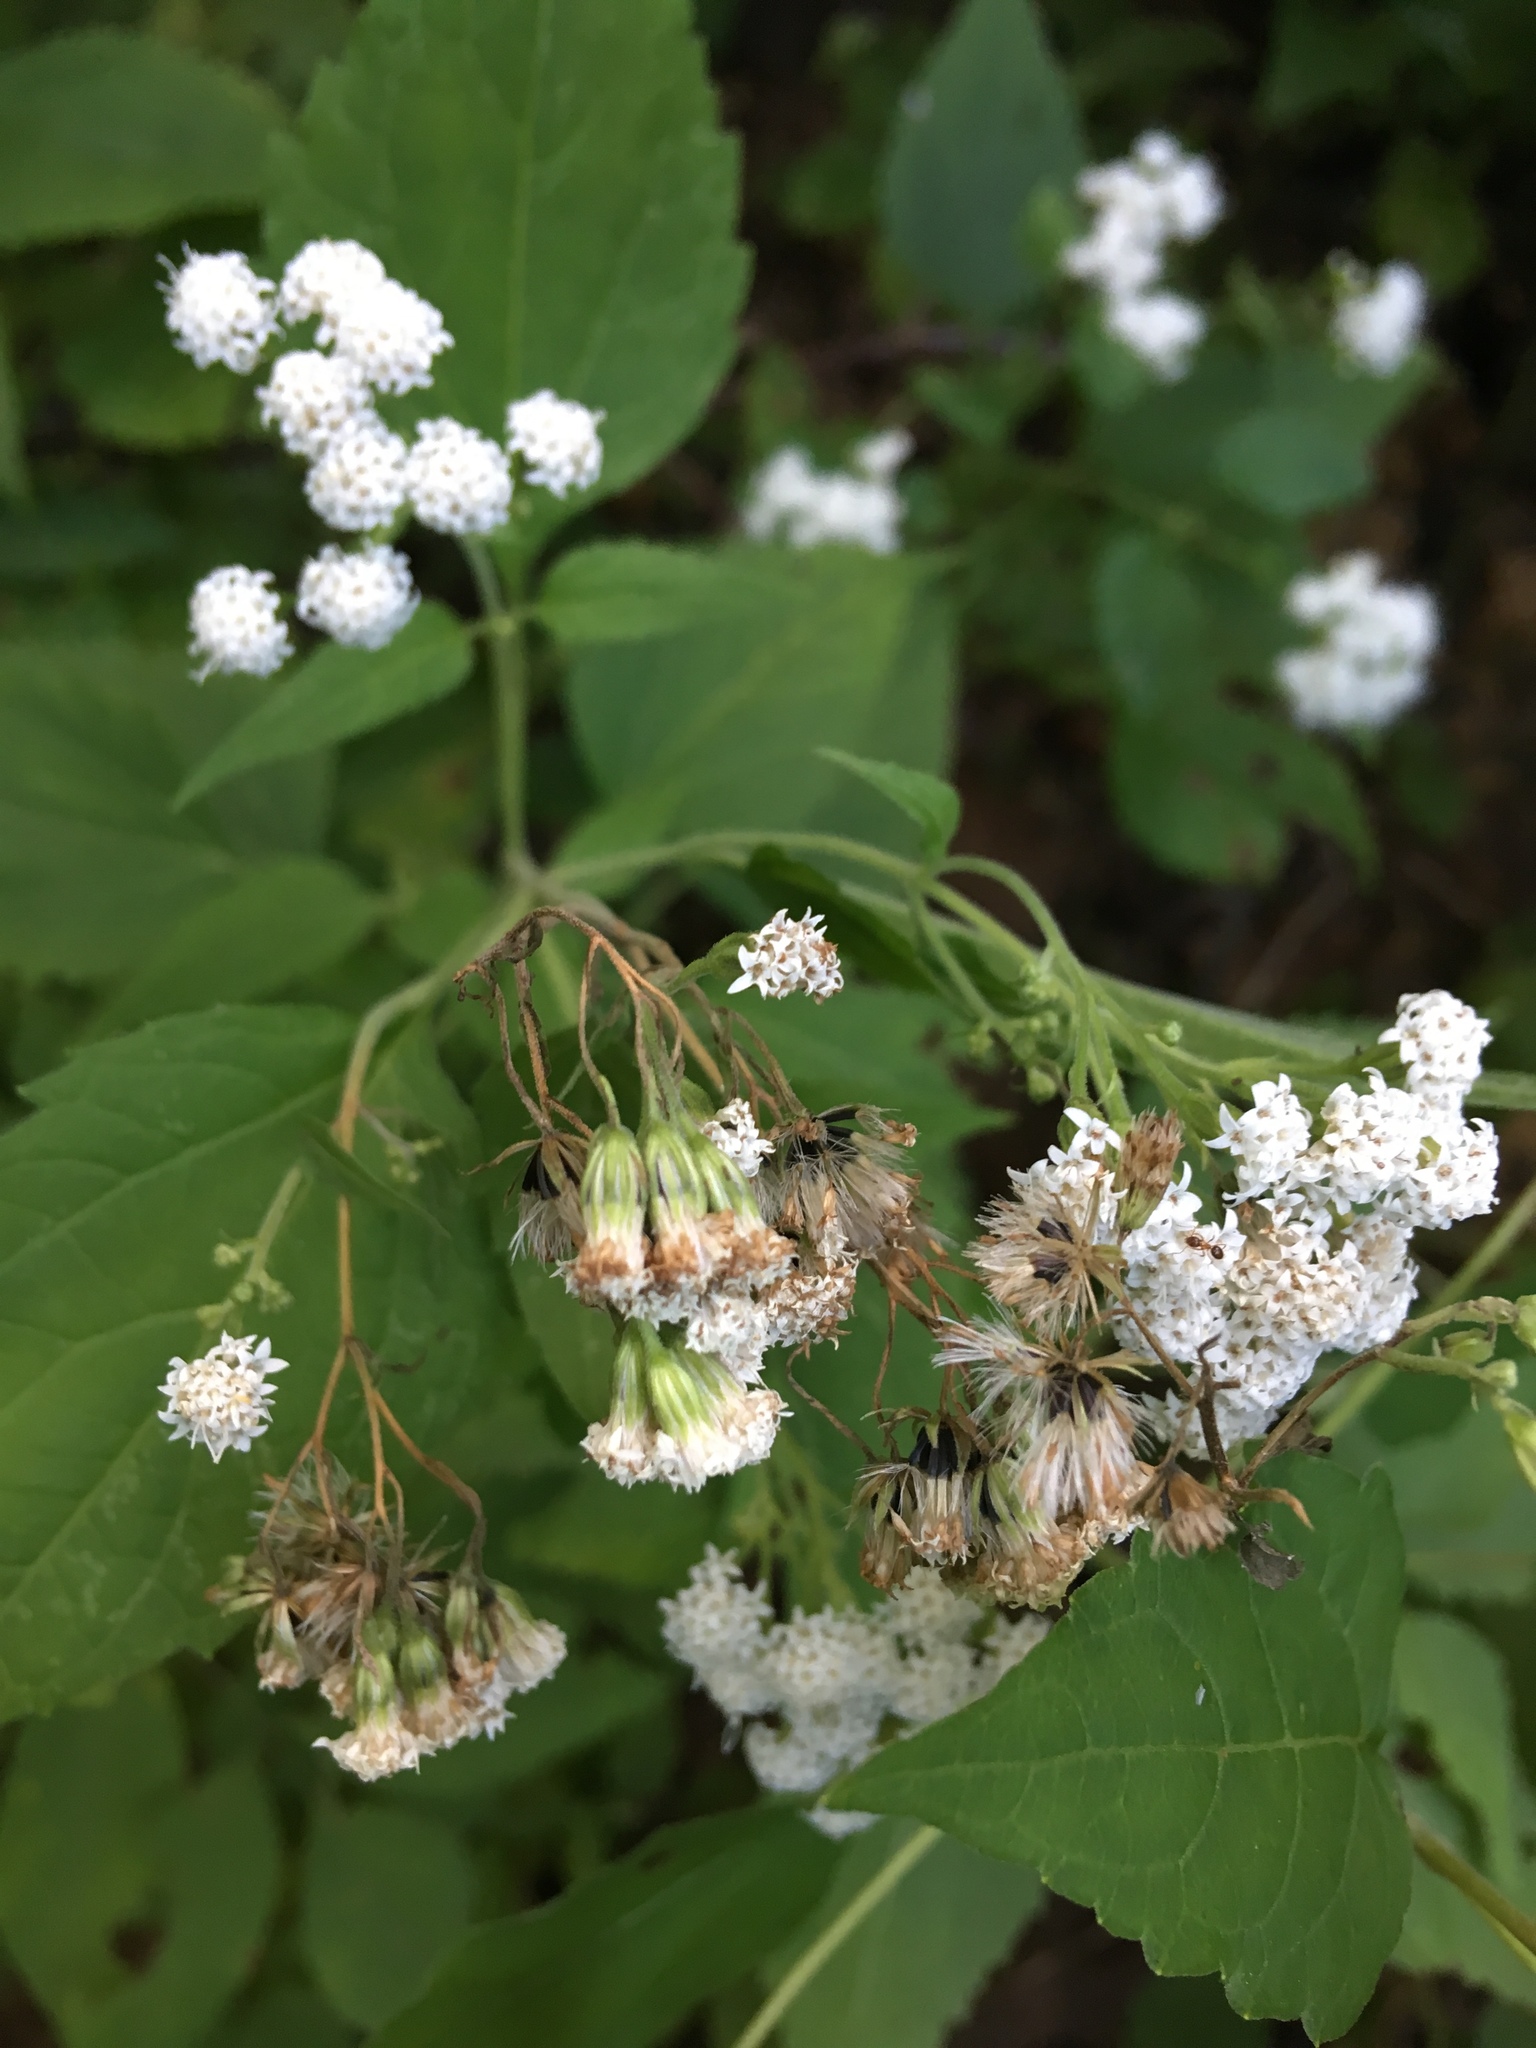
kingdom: Plantae
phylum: Tracheophyta
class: Magnoliopsida
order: Asterales
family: Asteraceae
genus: Ageratina
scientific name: Ageratina altissima
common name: White snakeroot
